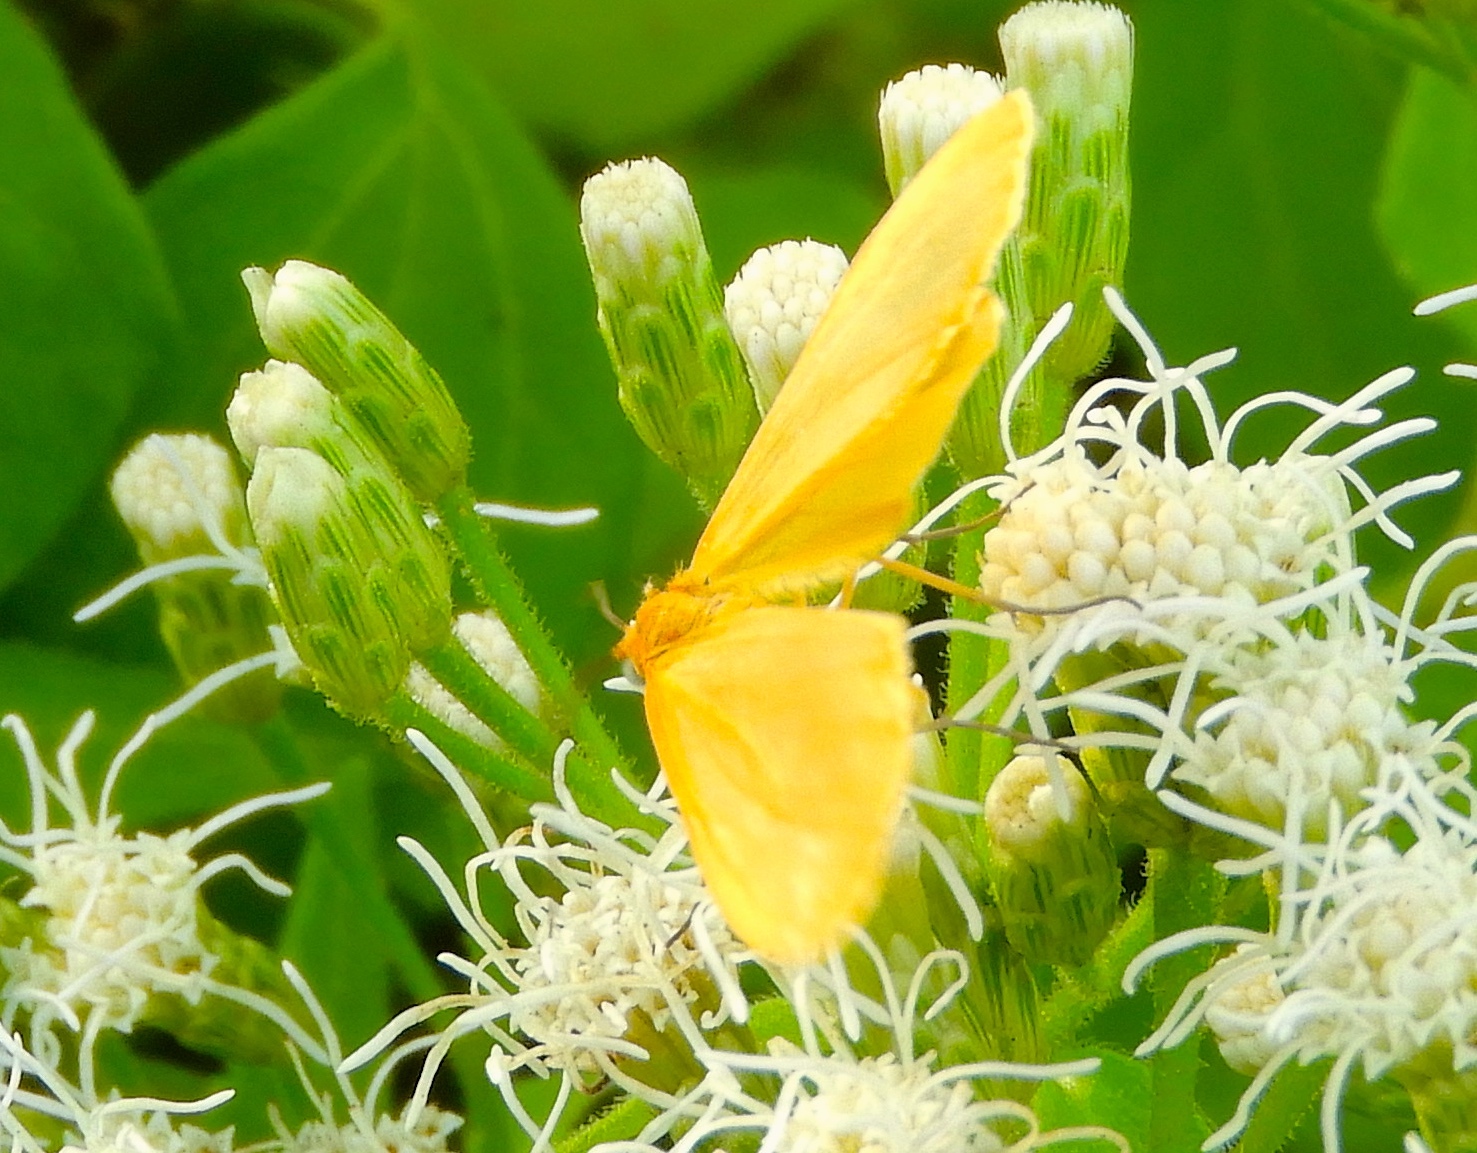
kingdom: Animalia
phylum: Arthropoda
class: Insecta
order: Lepidoptera
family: Geometridae
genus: Eubaphe
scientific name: Eubaphe unicolor
